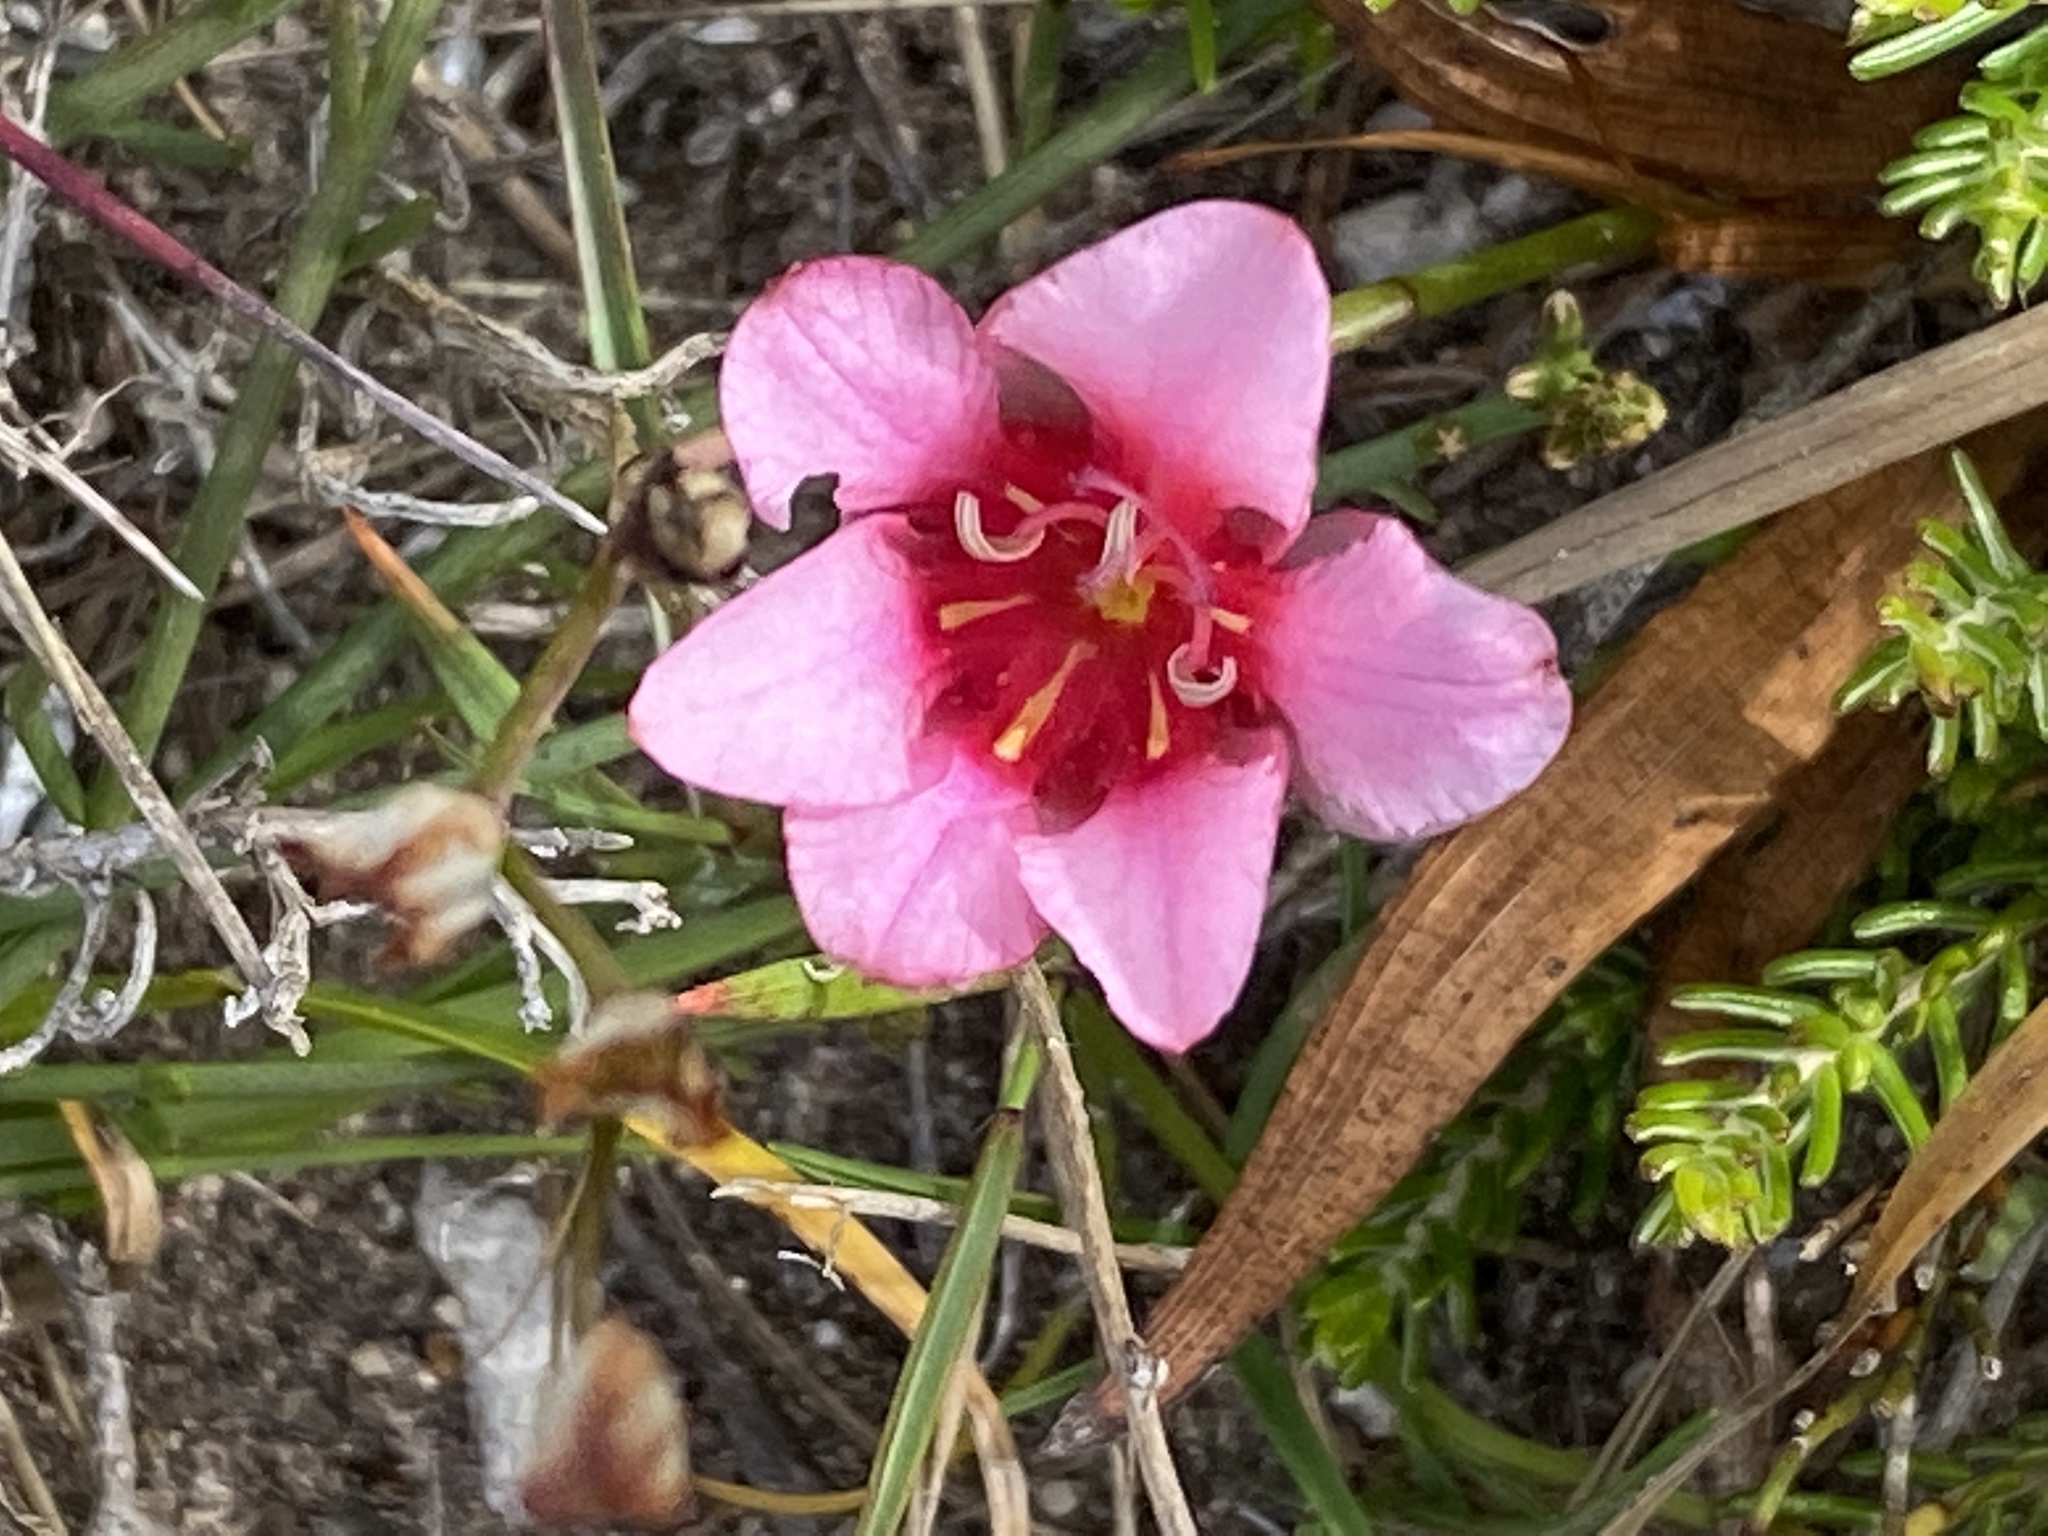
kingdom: Plantae
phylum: Tracheophyta
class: Liliopsida
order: Asparagales
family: Iridaceae
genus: Tritonia
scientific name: Tritonia squalida
